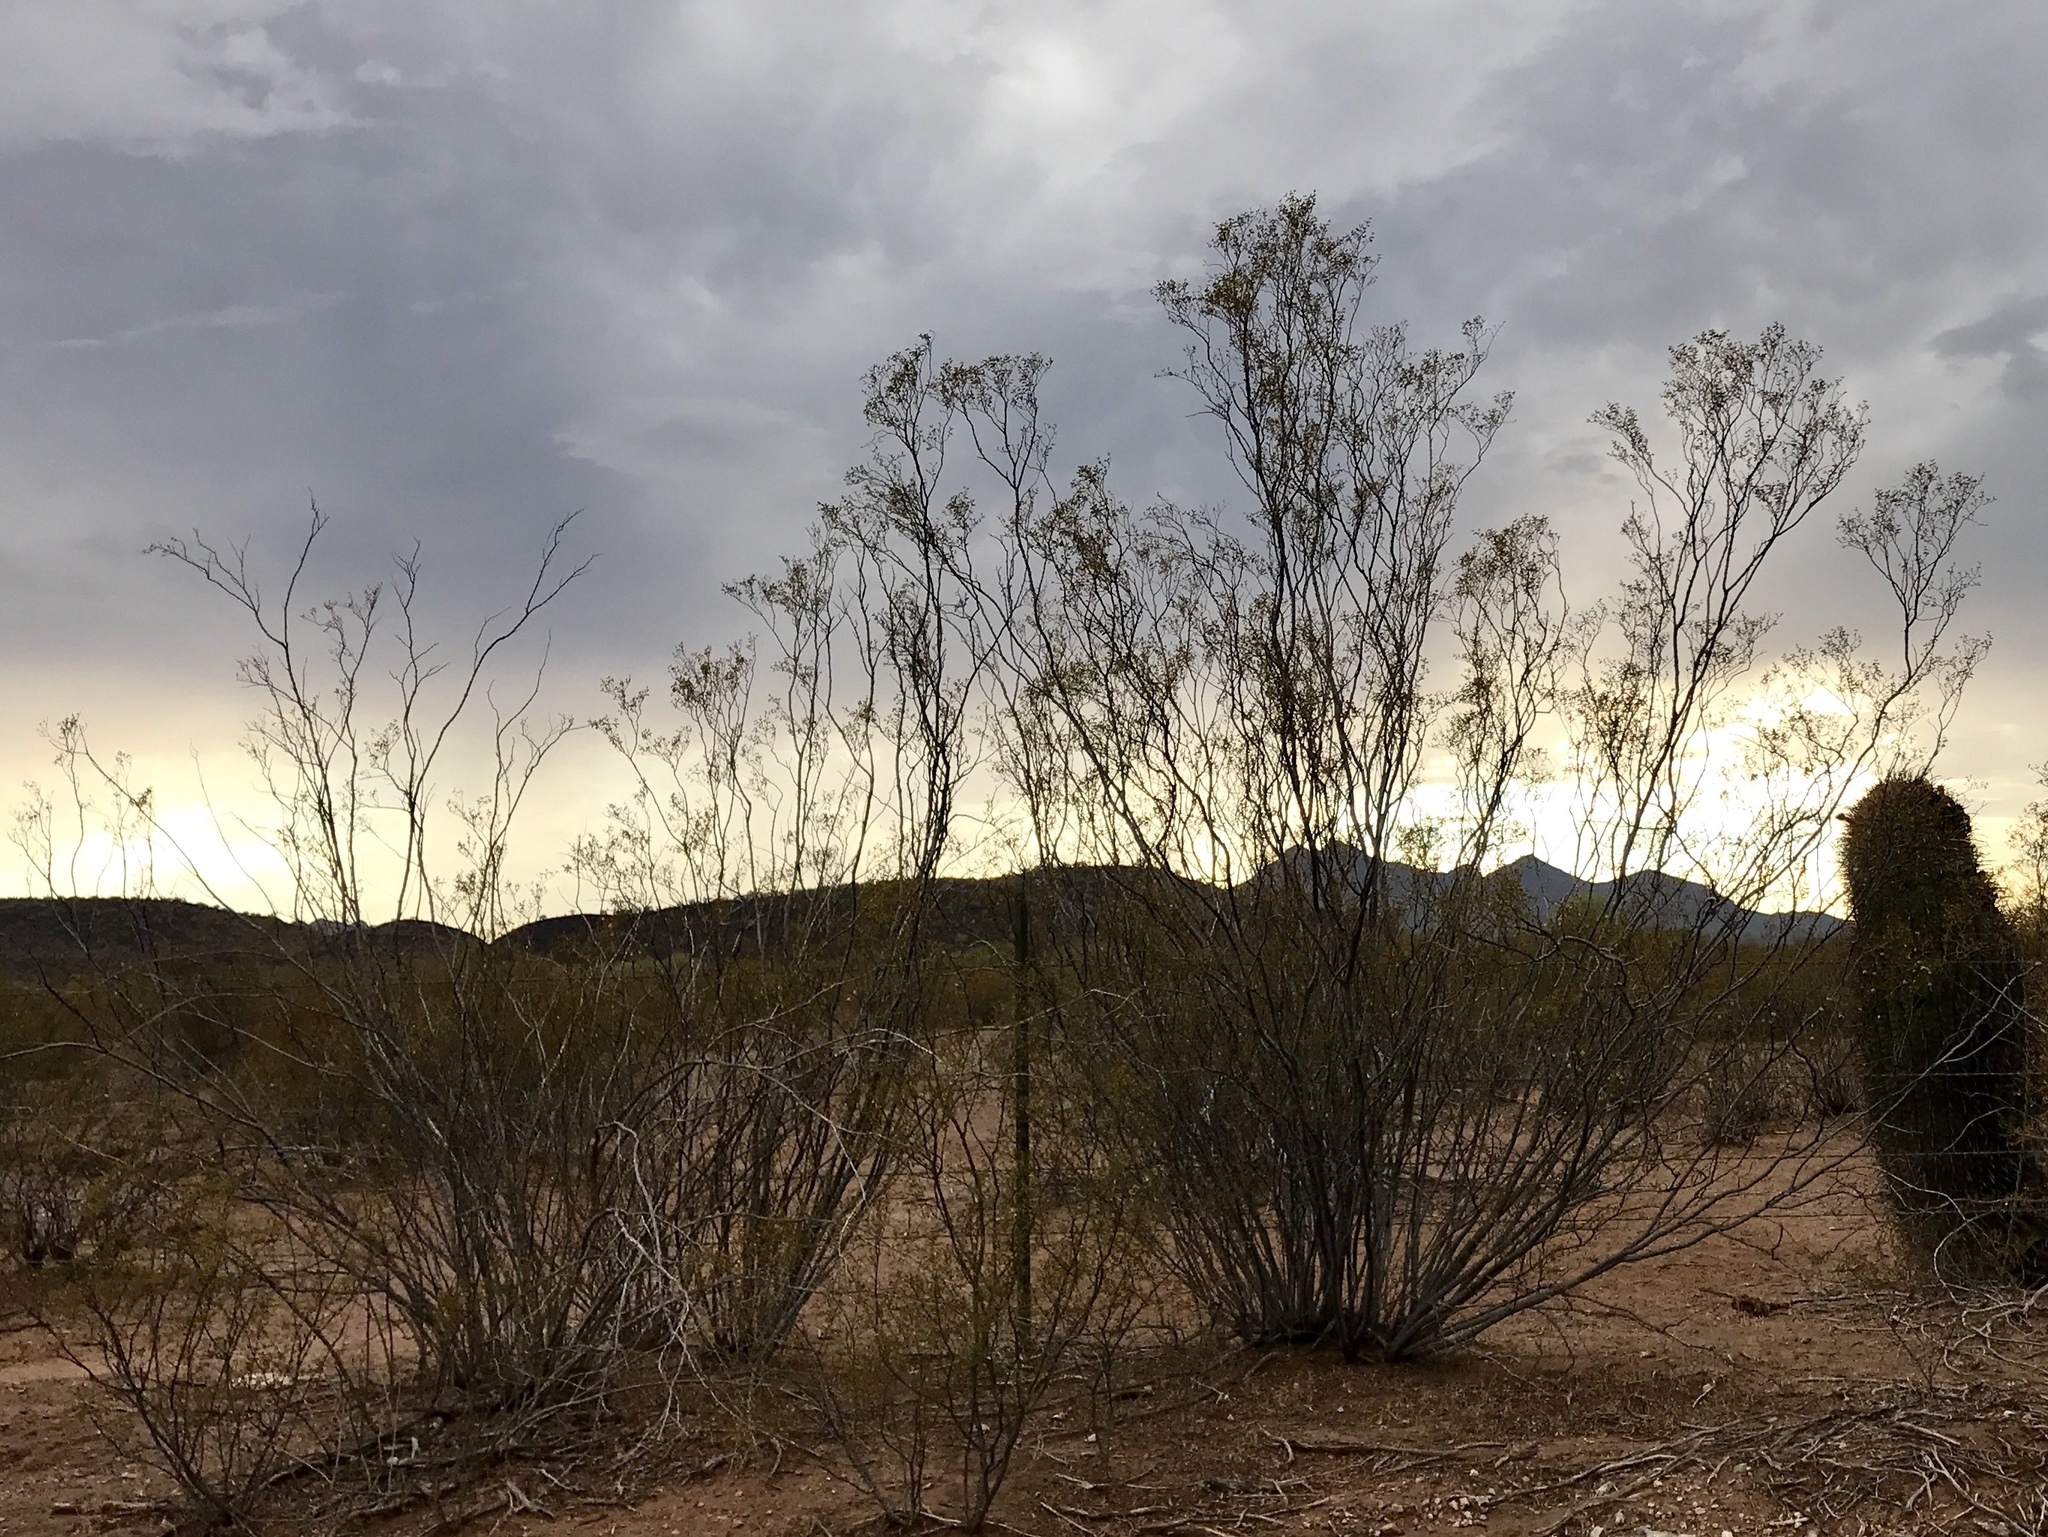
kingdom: Plantae
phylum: Tracheophyta
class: Magnoliopsida
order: Zygophyllales
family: Zygophyllaceae
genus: Larrea
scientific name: Larrea tridentata
